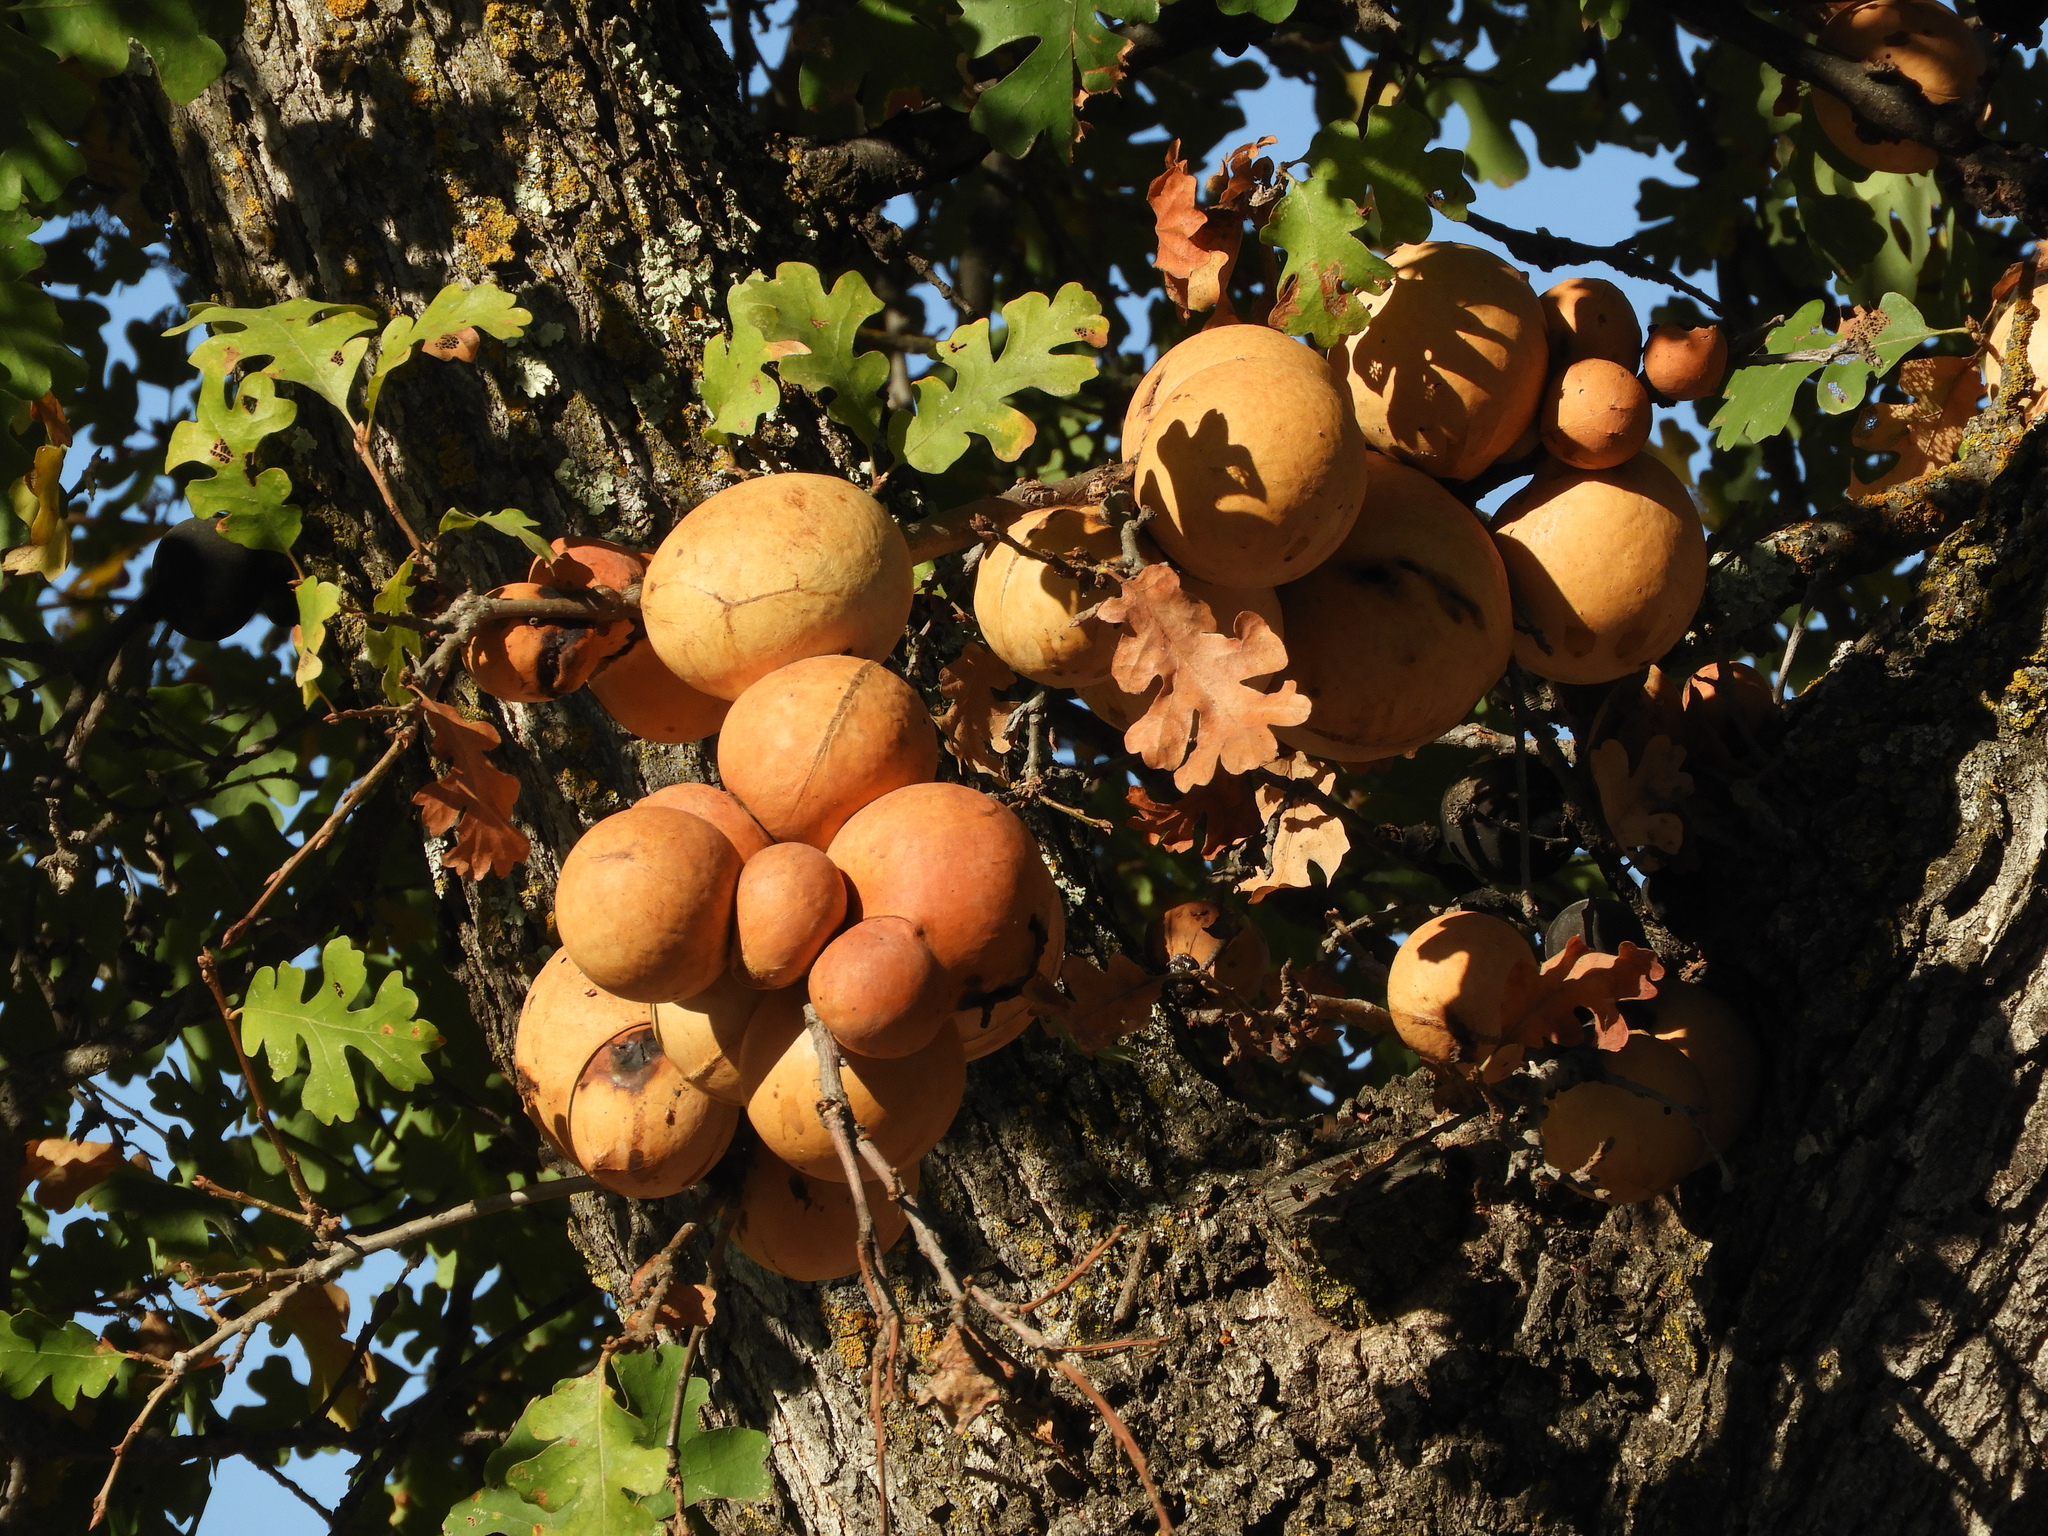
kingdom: Animalia
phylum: Arthropoda
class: Insecta
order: Hymenoptera
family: Cynipidae
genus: Andricus
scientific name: Andricus quercuscalifornicus
